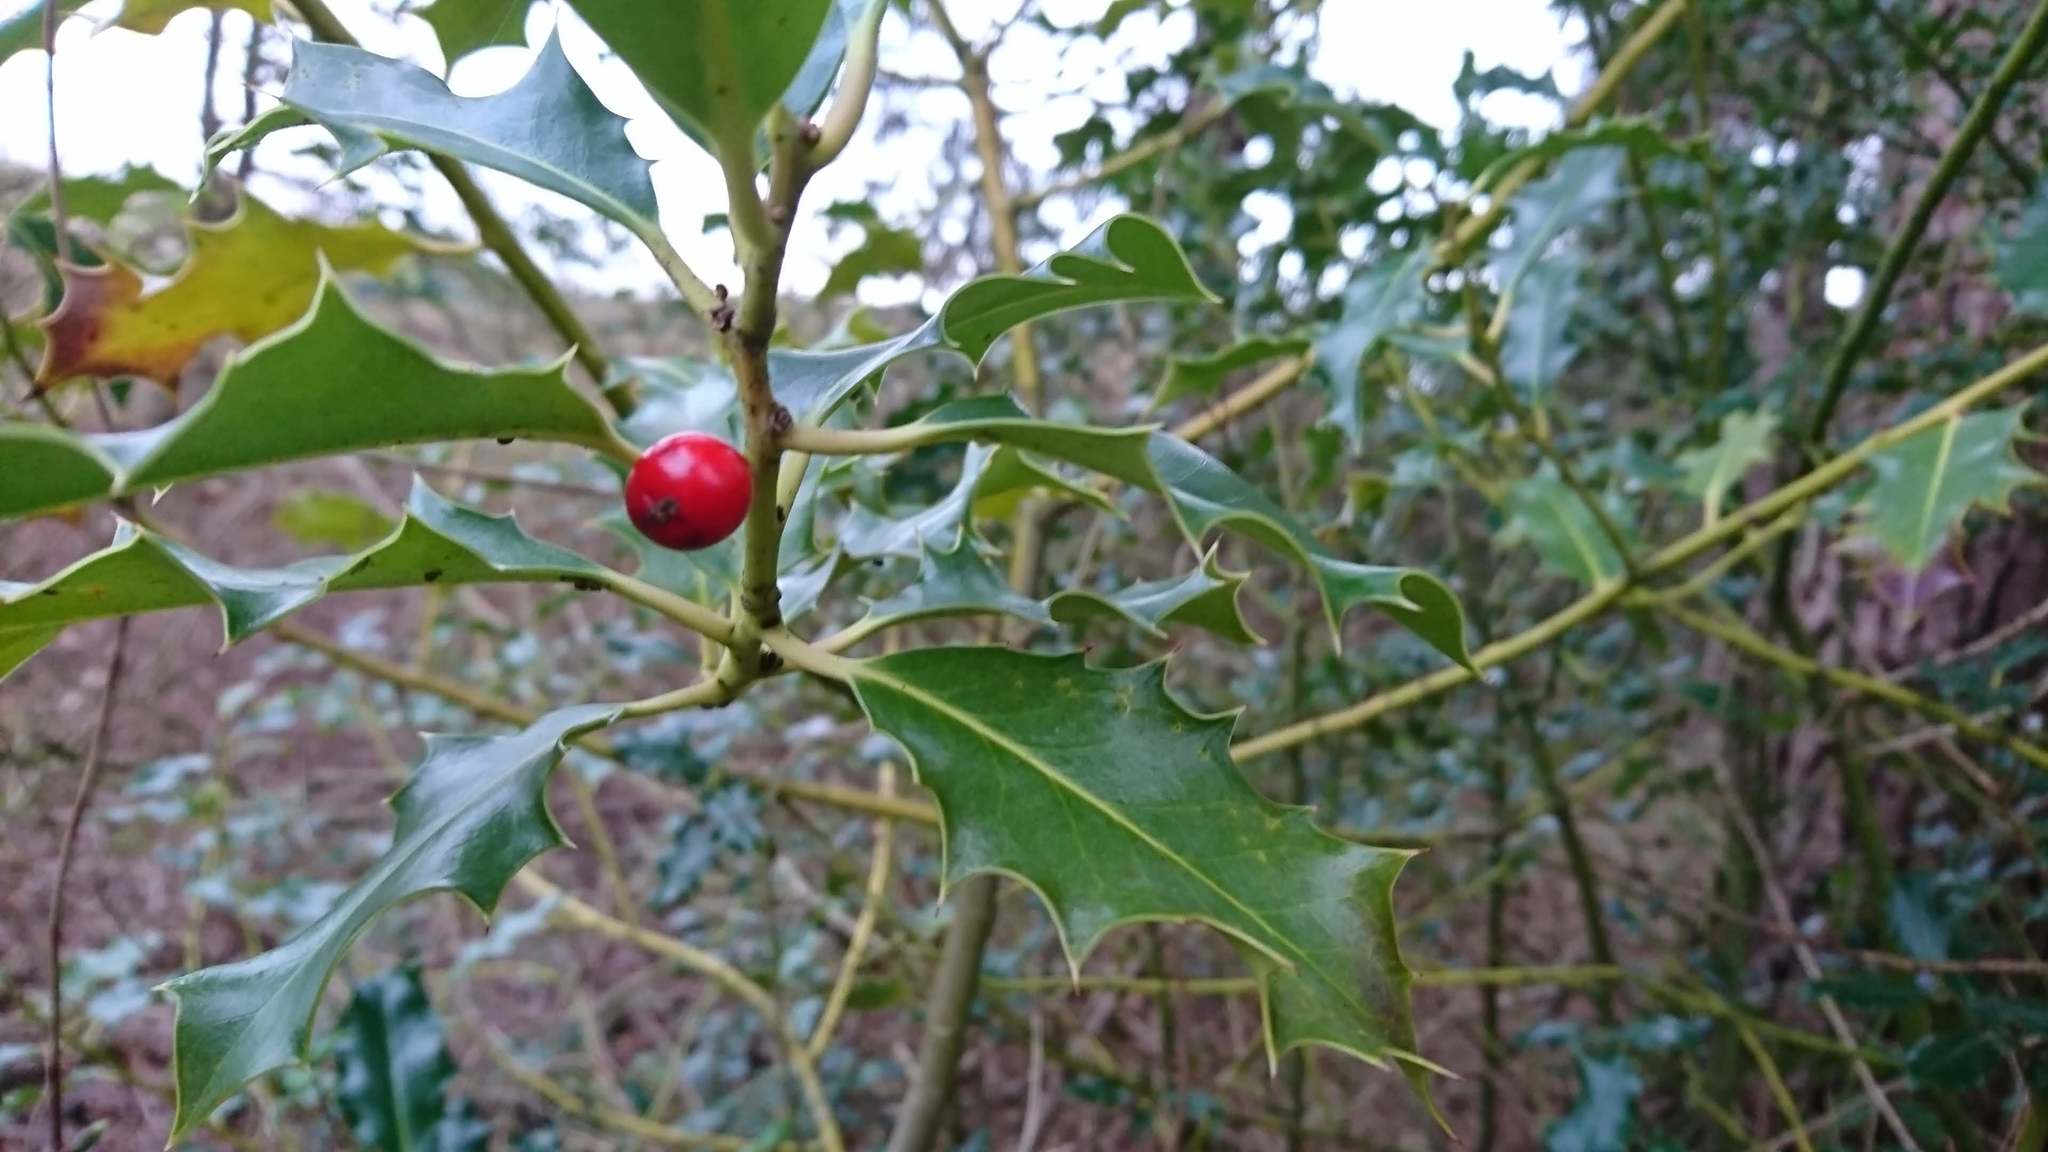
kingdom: Plantae
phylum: Tracheophyta
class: Magnoliopsida
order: Aquifoliales
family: Aquifoliaceae
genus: Ilex
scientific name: Ilex aquifolium
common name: English holly
